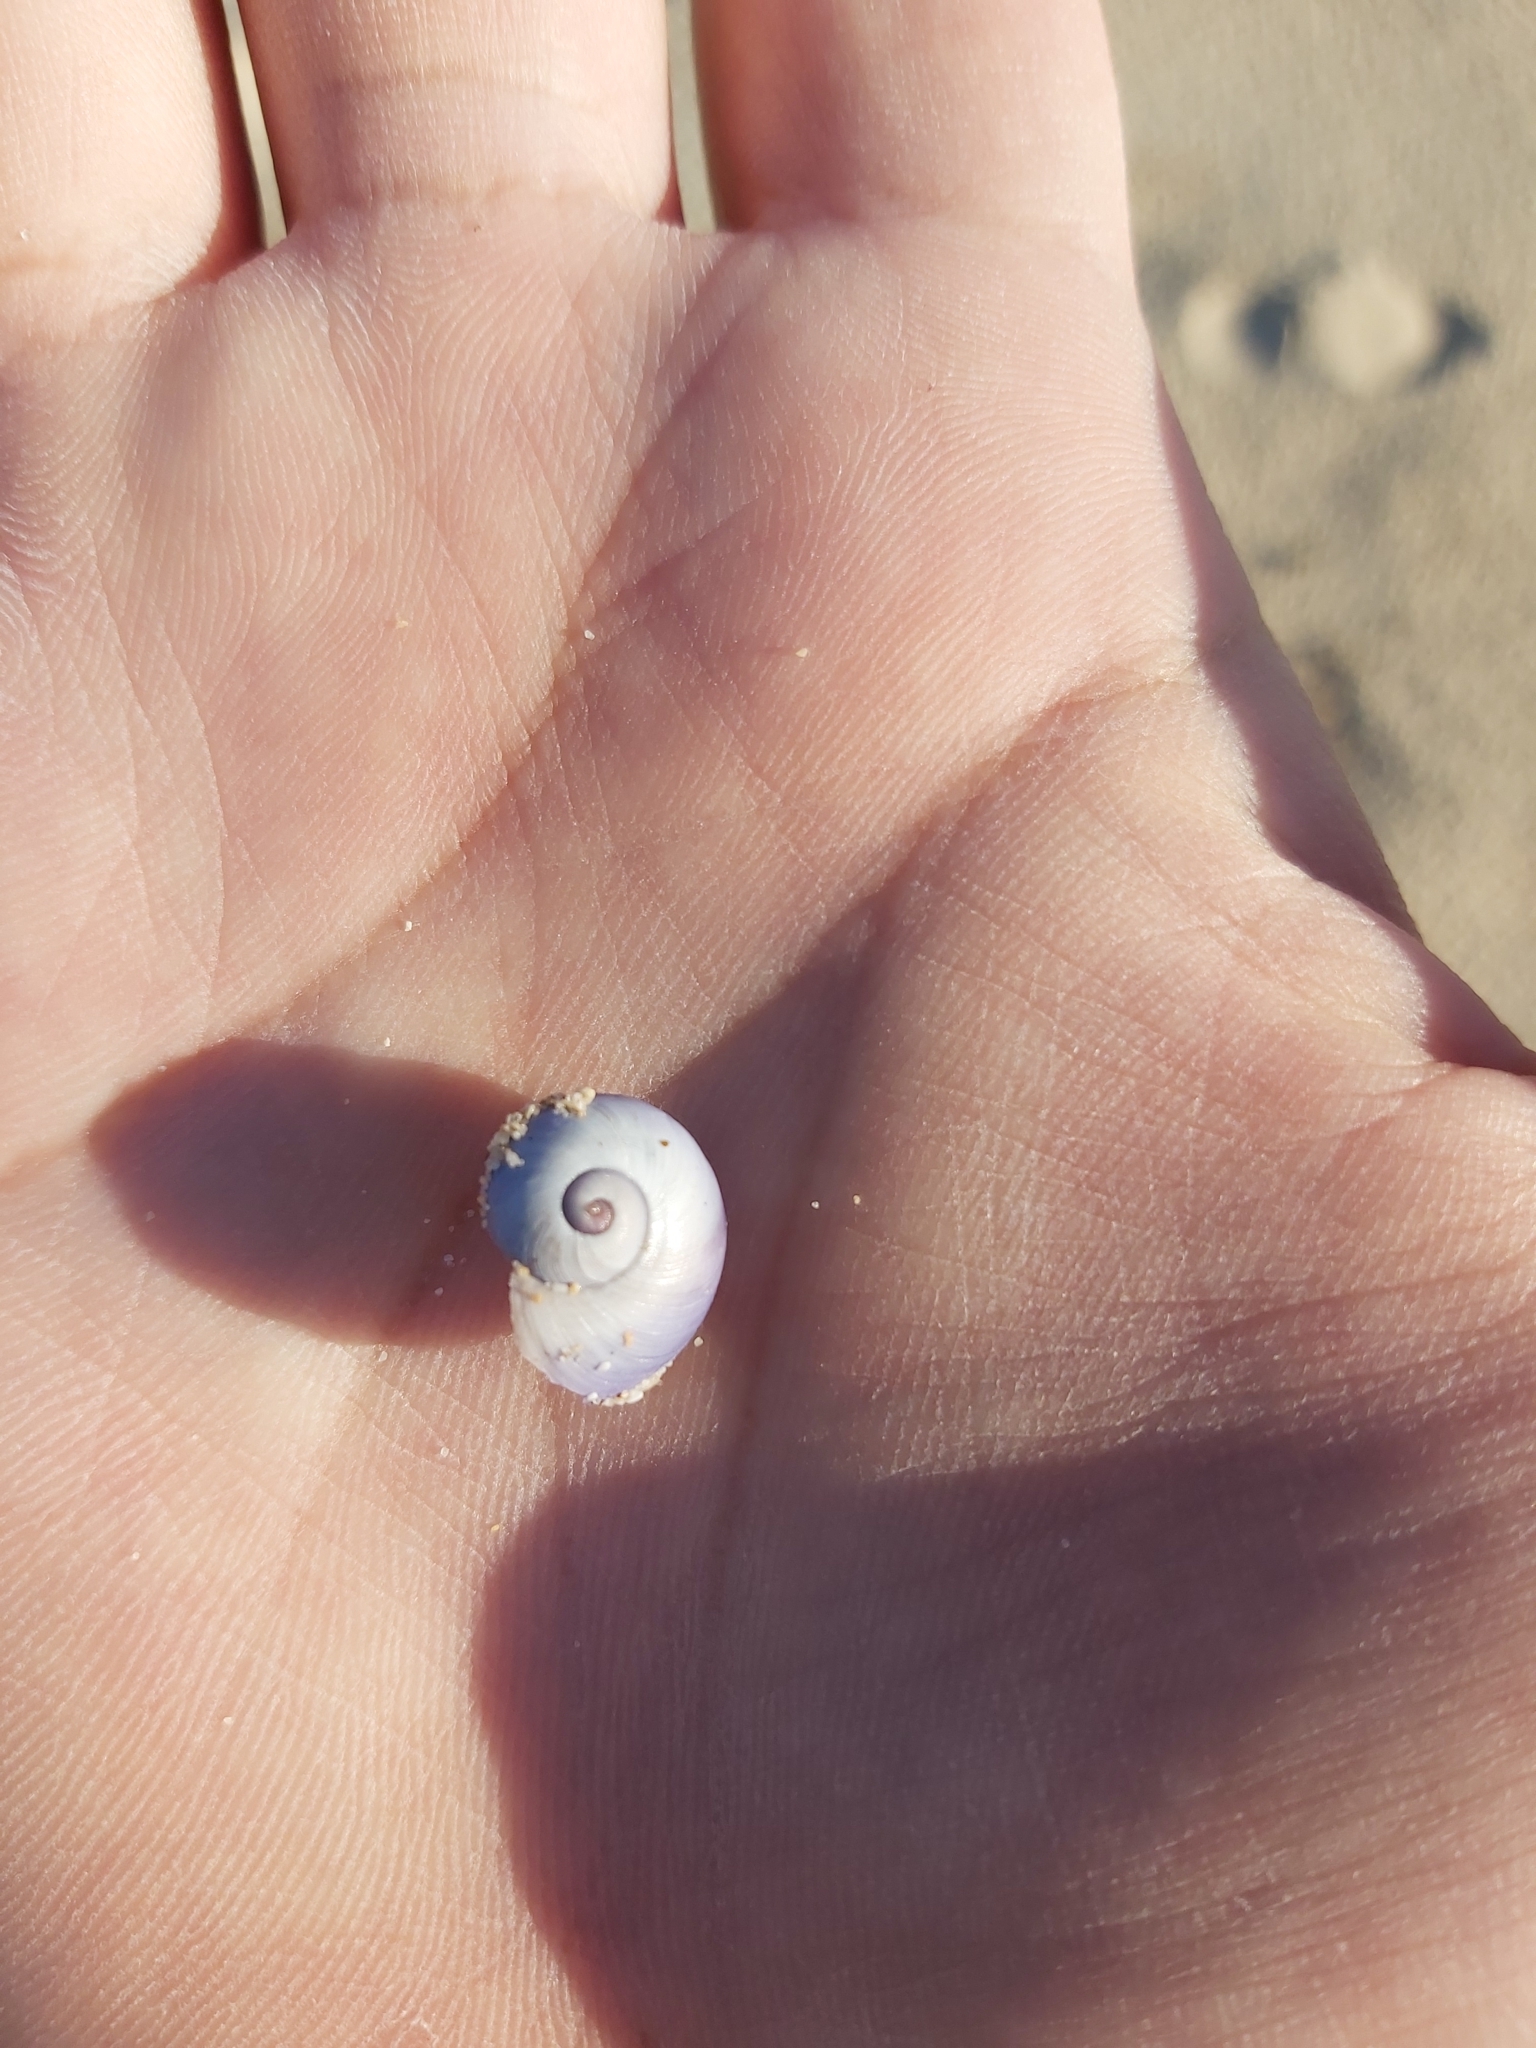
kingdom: Animalia
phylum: Mollusca
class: Gastropoda
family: Epitoniidae
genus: Janthina
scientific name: Janthina janthina
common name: Common janthina
